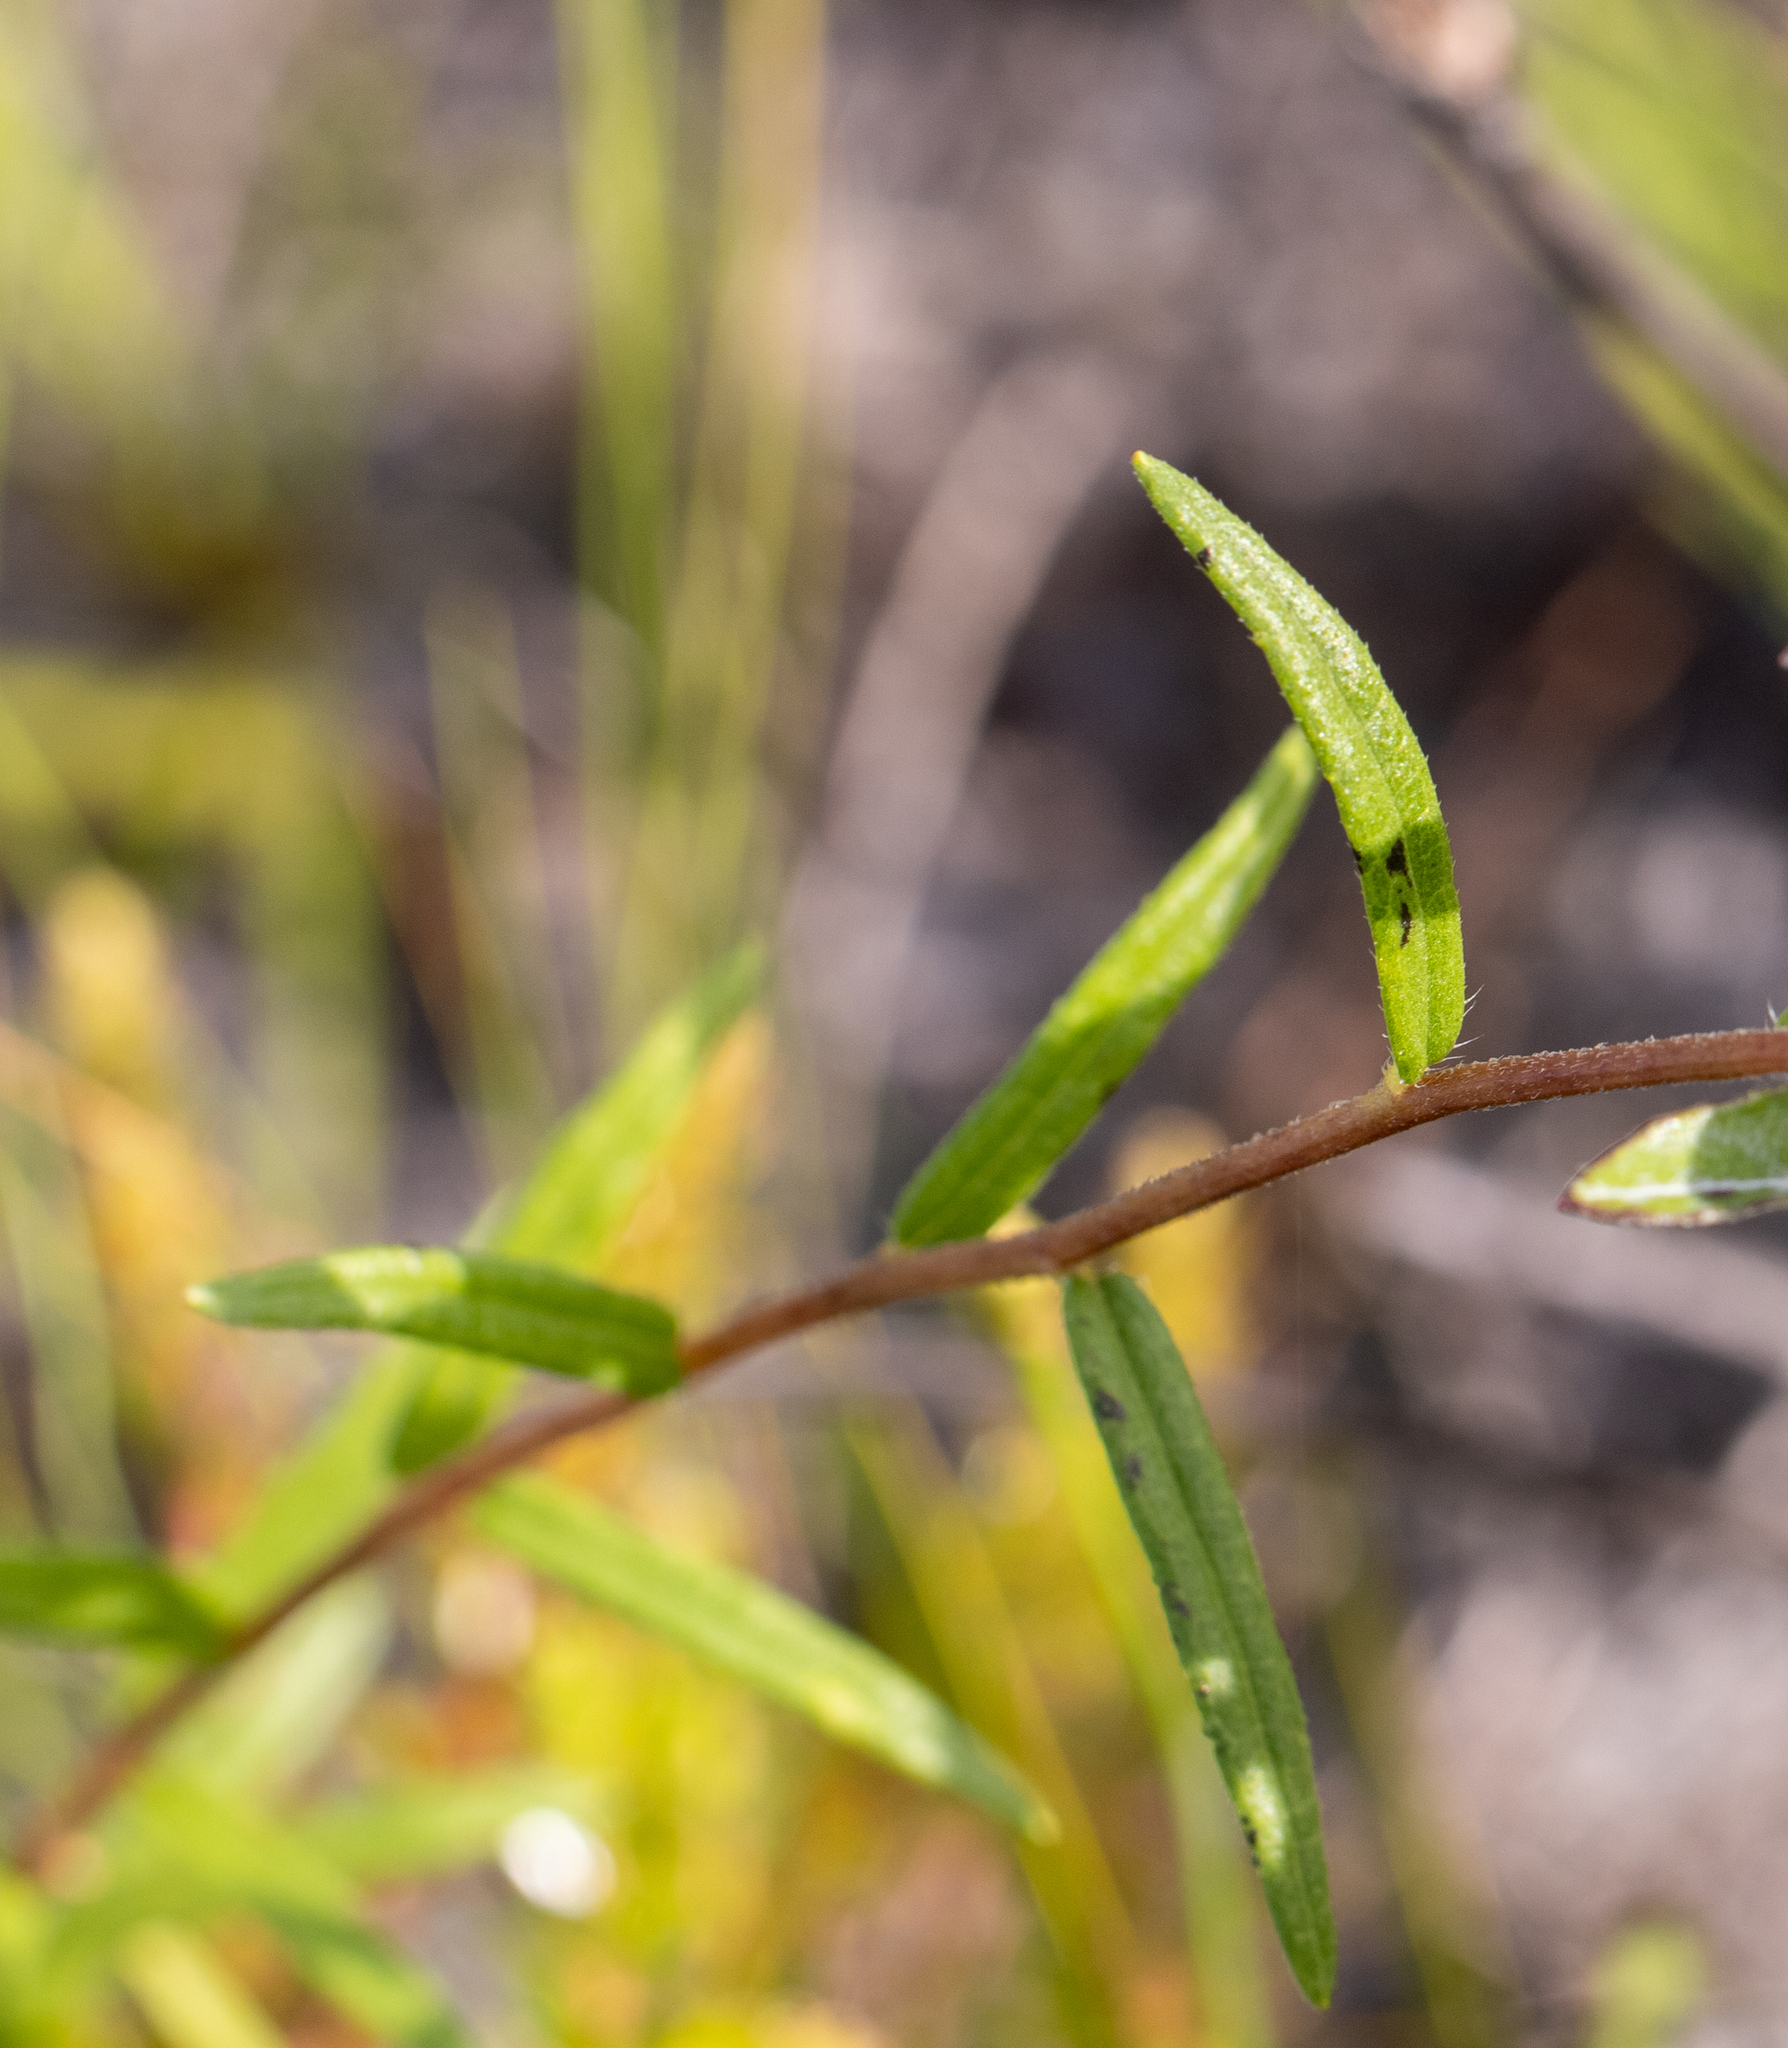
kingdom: Plantae
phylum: Tracheophyta
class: Magnoliopsida
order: Asterales
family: Asteraceae
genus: Phoebanthus
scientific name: Phoebanthus grandiflora
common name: Florida false sunflower
